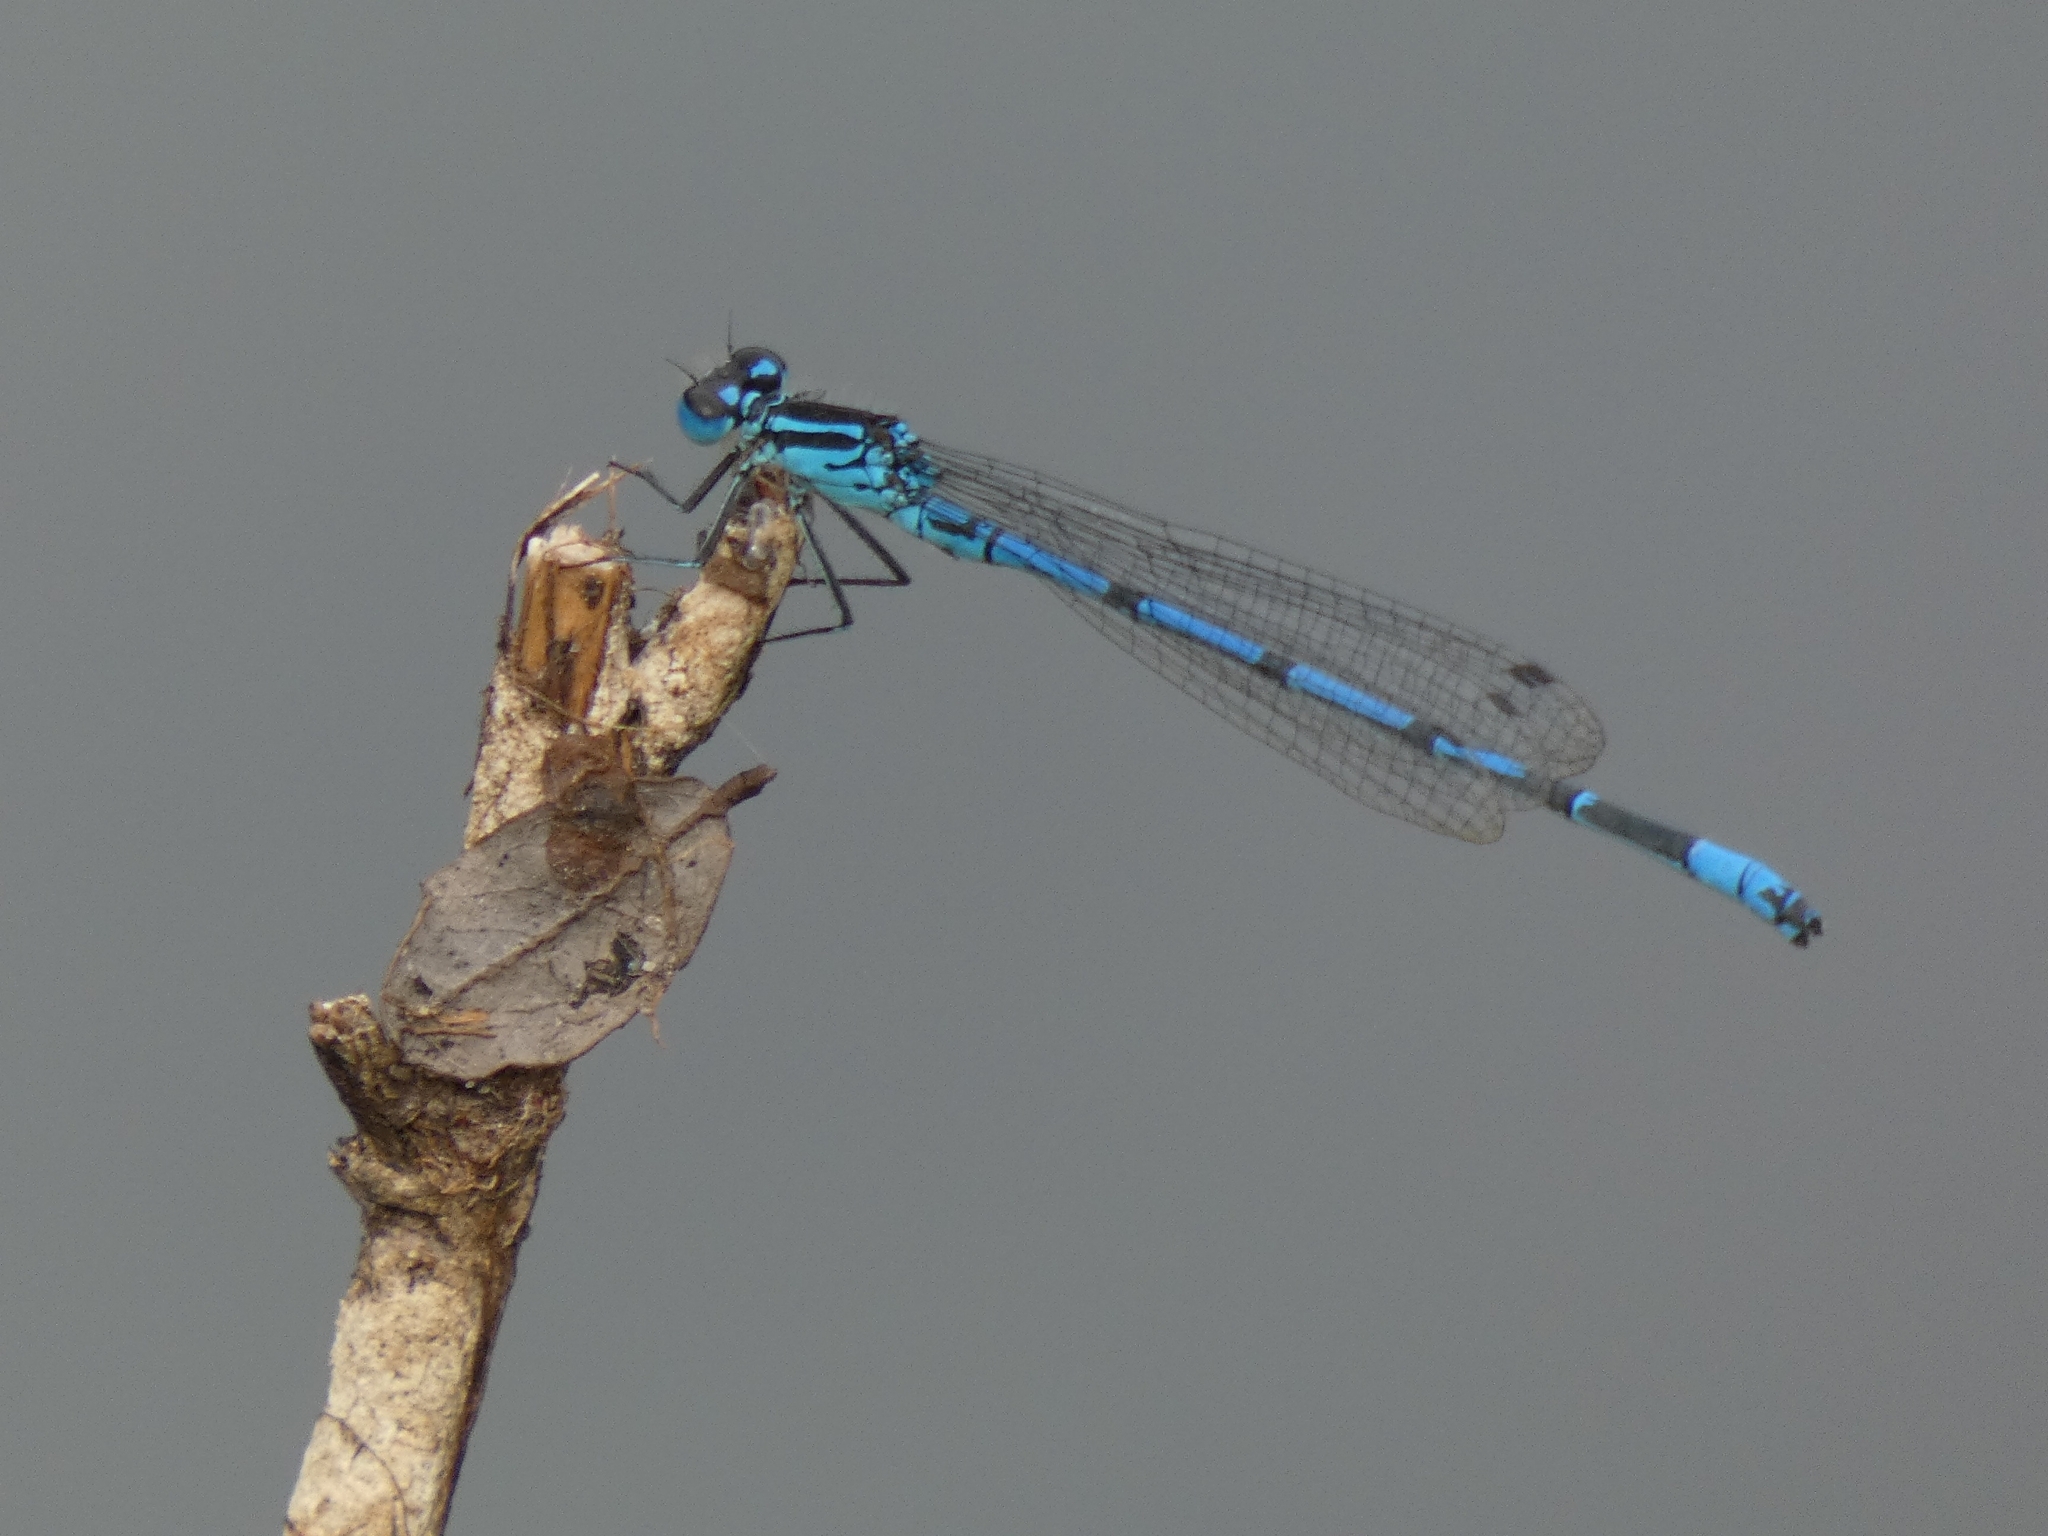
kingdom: Animalia
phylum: Arthropoda
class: Insecta
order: Odonata
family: Coenagrionidae
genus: Coenagrion
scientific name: Coenagrion puella
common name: Azure damselfly
